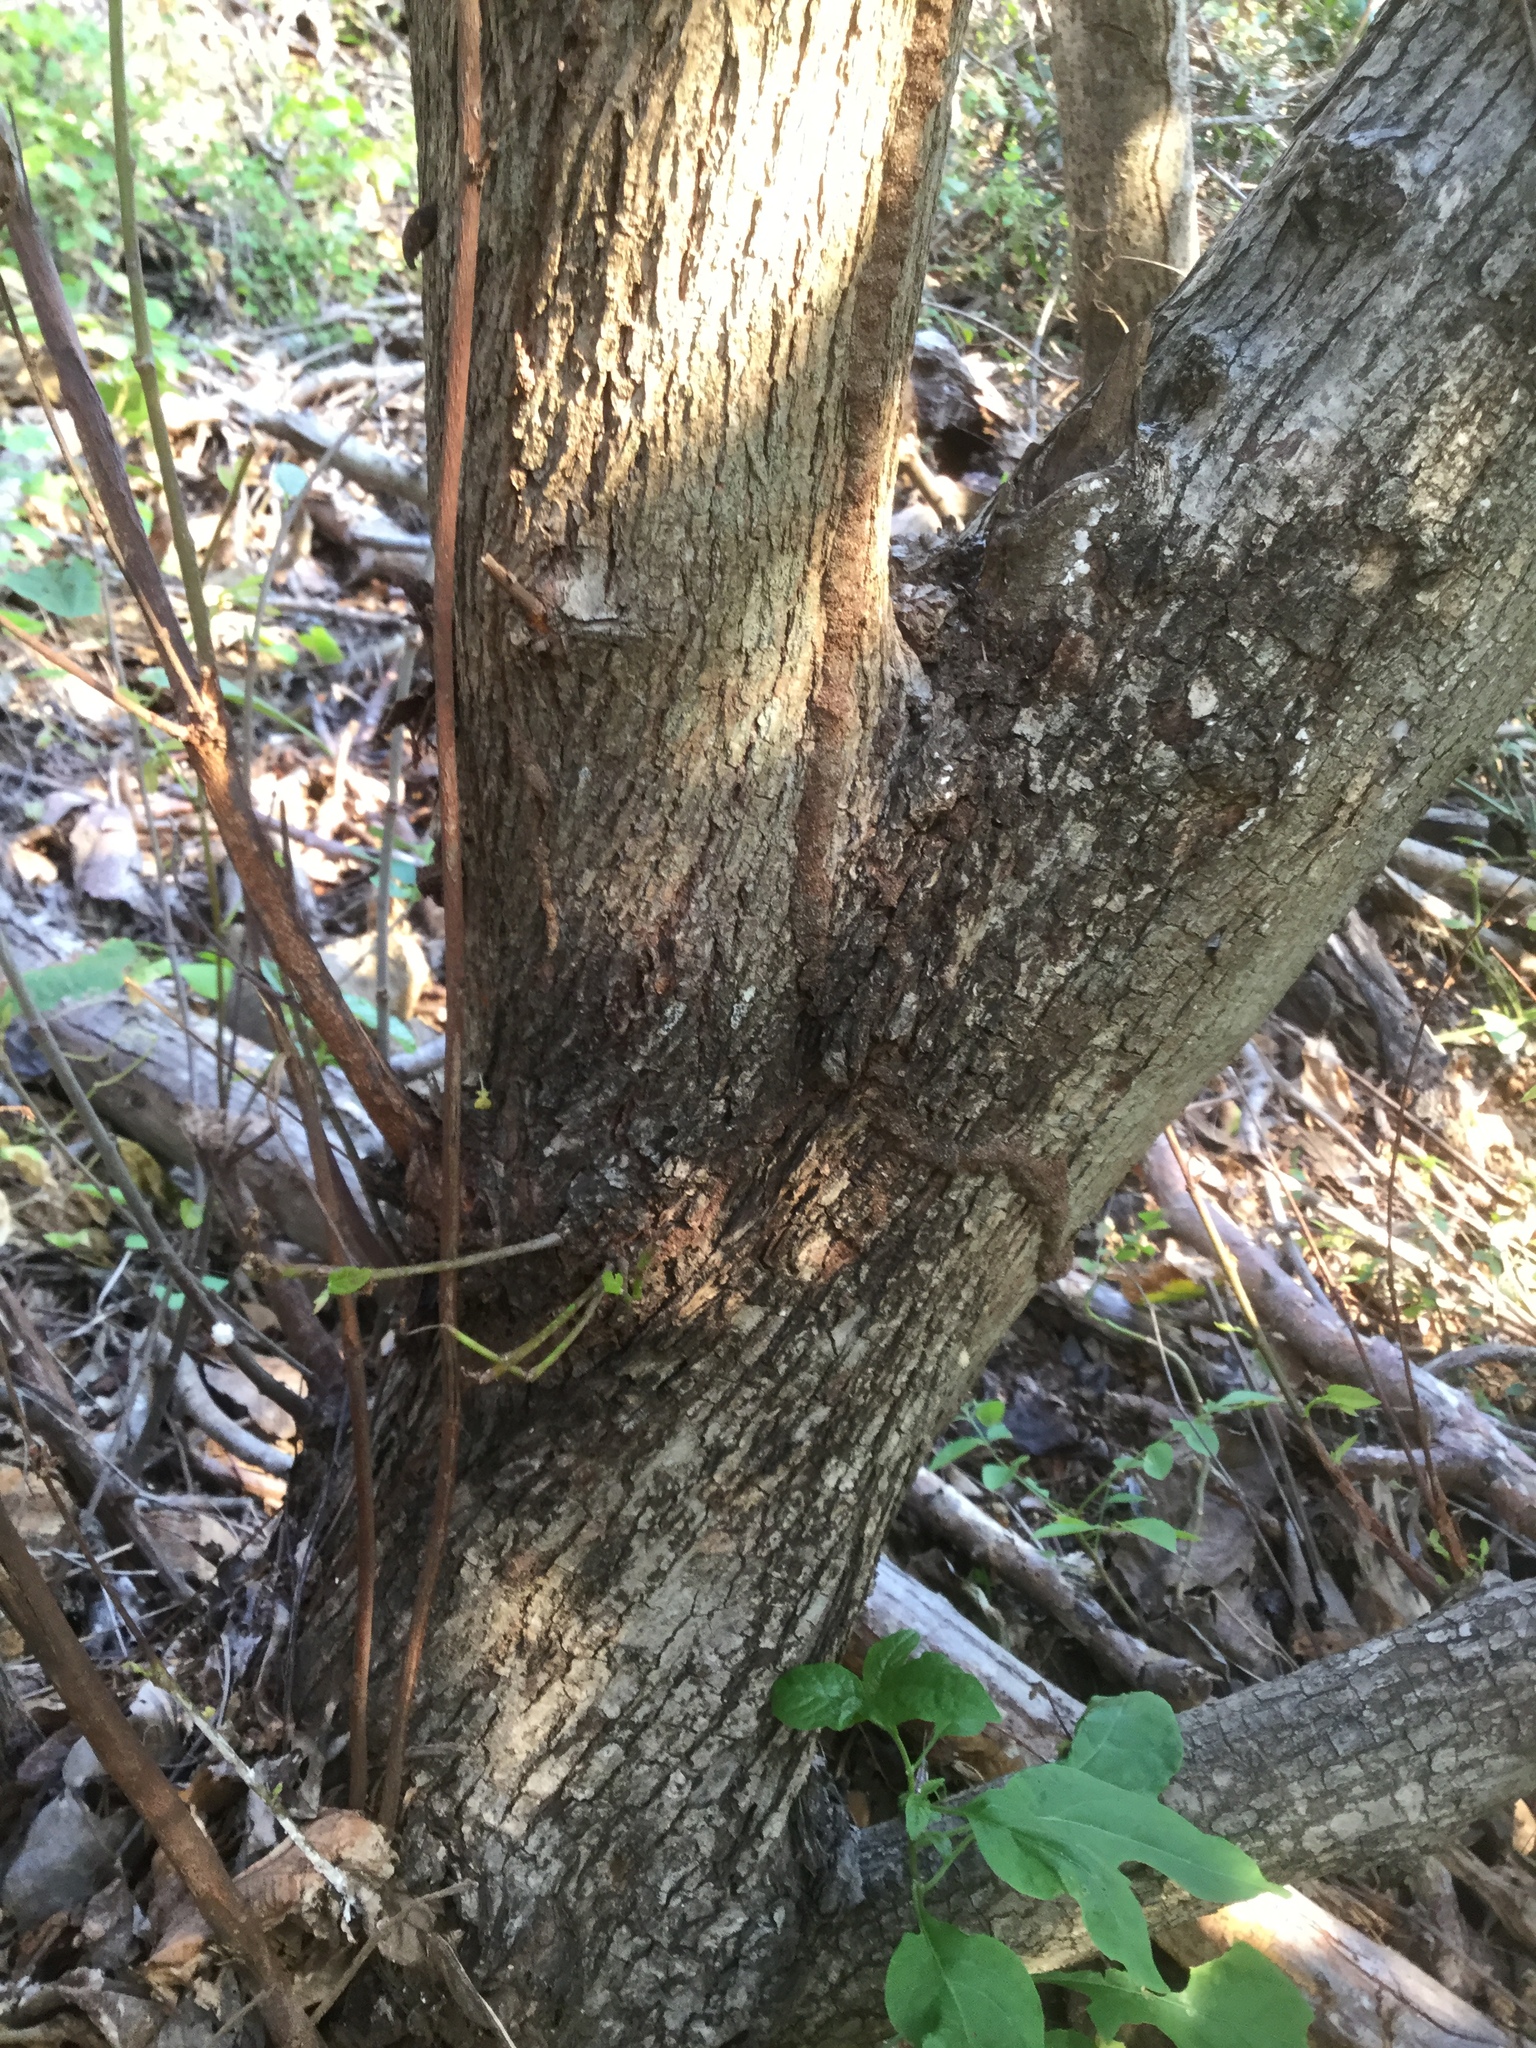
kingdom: Plantae
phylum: Tracheophyta
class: Magnoliopsida
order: Malvales
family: Malvaceae
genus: Guazuma
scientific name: Guazuma ulmifolia
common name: Bastard-cedar
